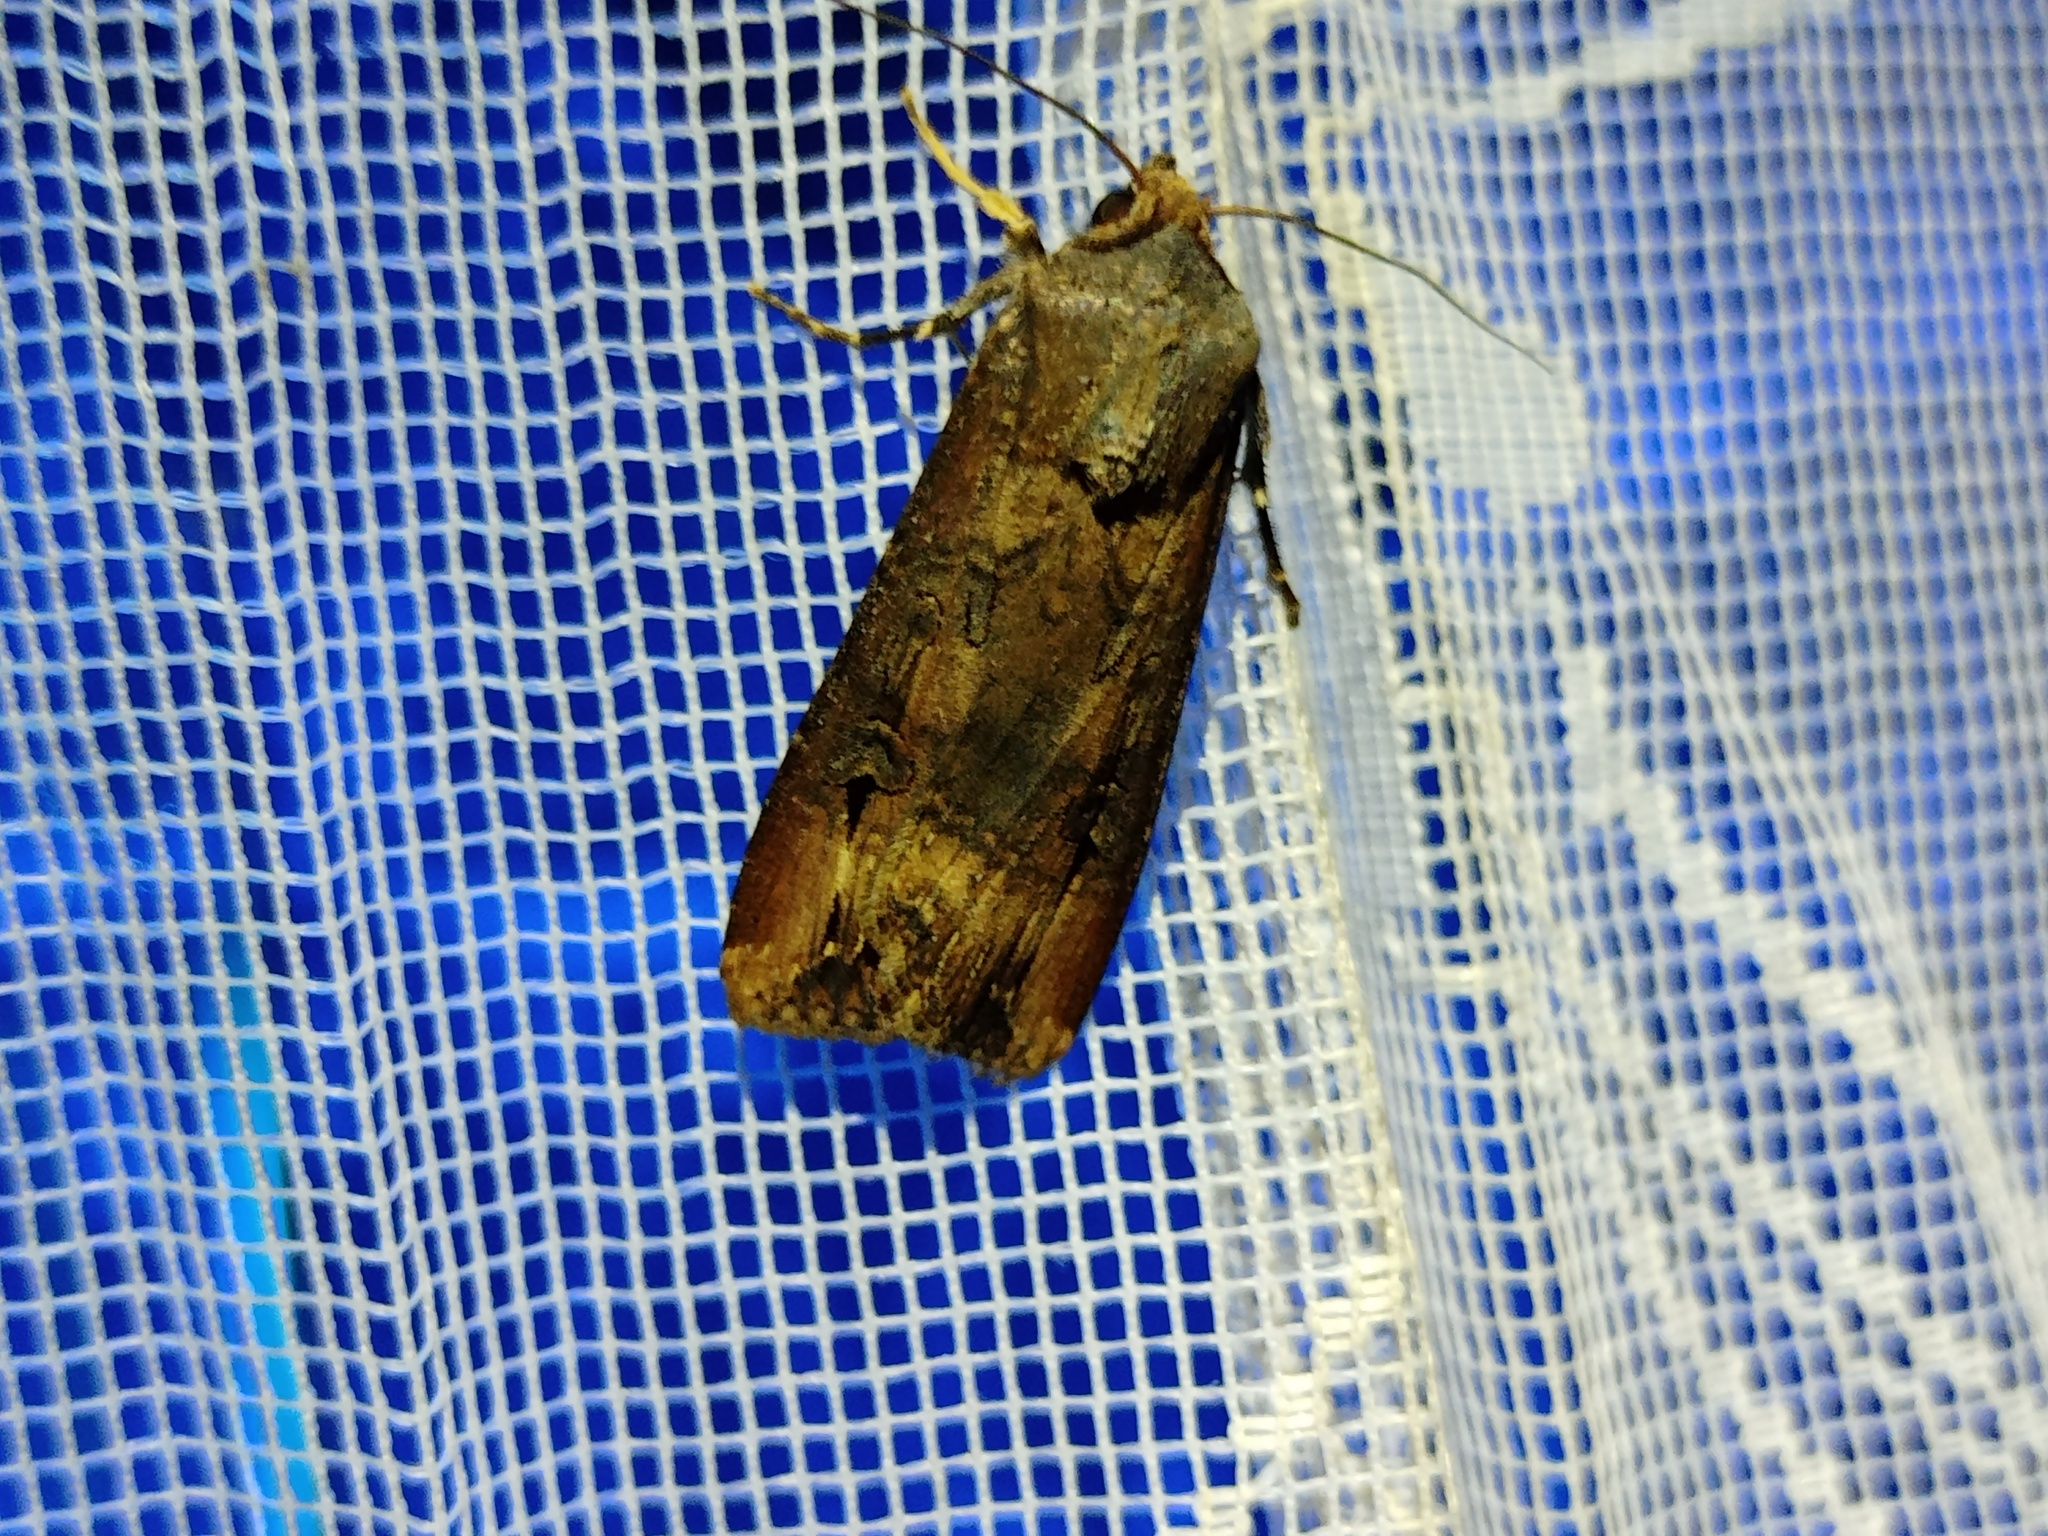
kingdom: Animalia
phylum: Arthropoda
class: Insecta
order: Lepidoptera
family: Noctuidae
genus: Agrotis
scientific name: Agrotis ipsilon
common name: Dark sword-grass
